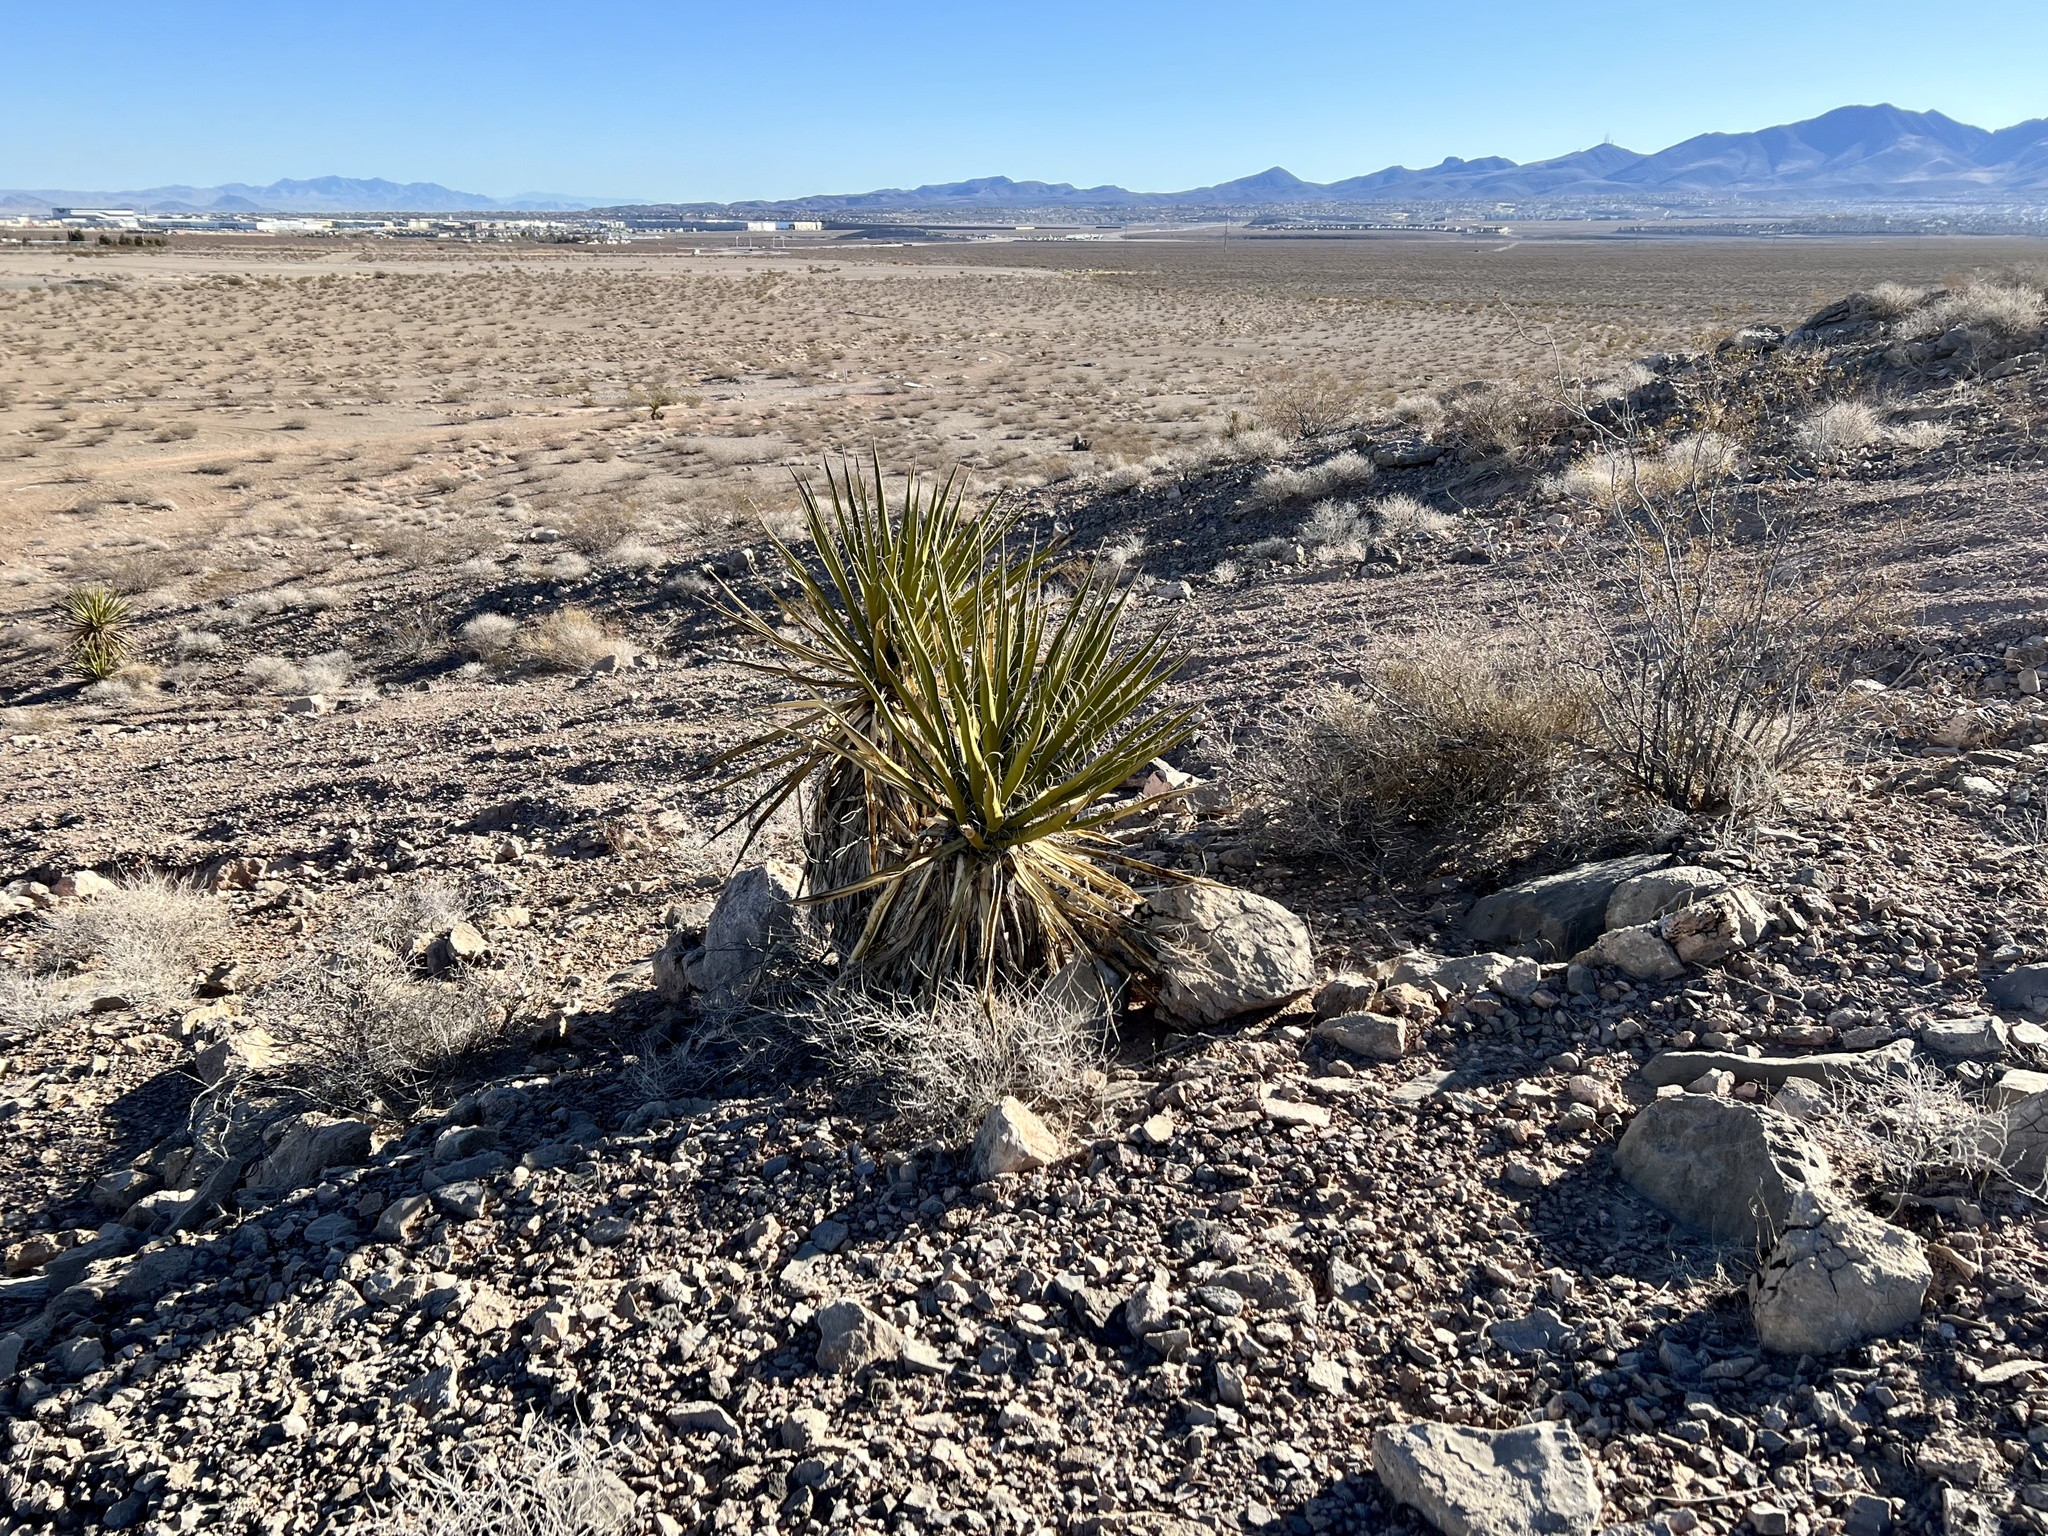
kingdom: Plantae
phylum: Tracheophyta
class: Liliopsida
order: Asparagales
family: Asparagaceae
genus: Yucca
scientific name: Yucca schidigera
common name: Mojave yucca
